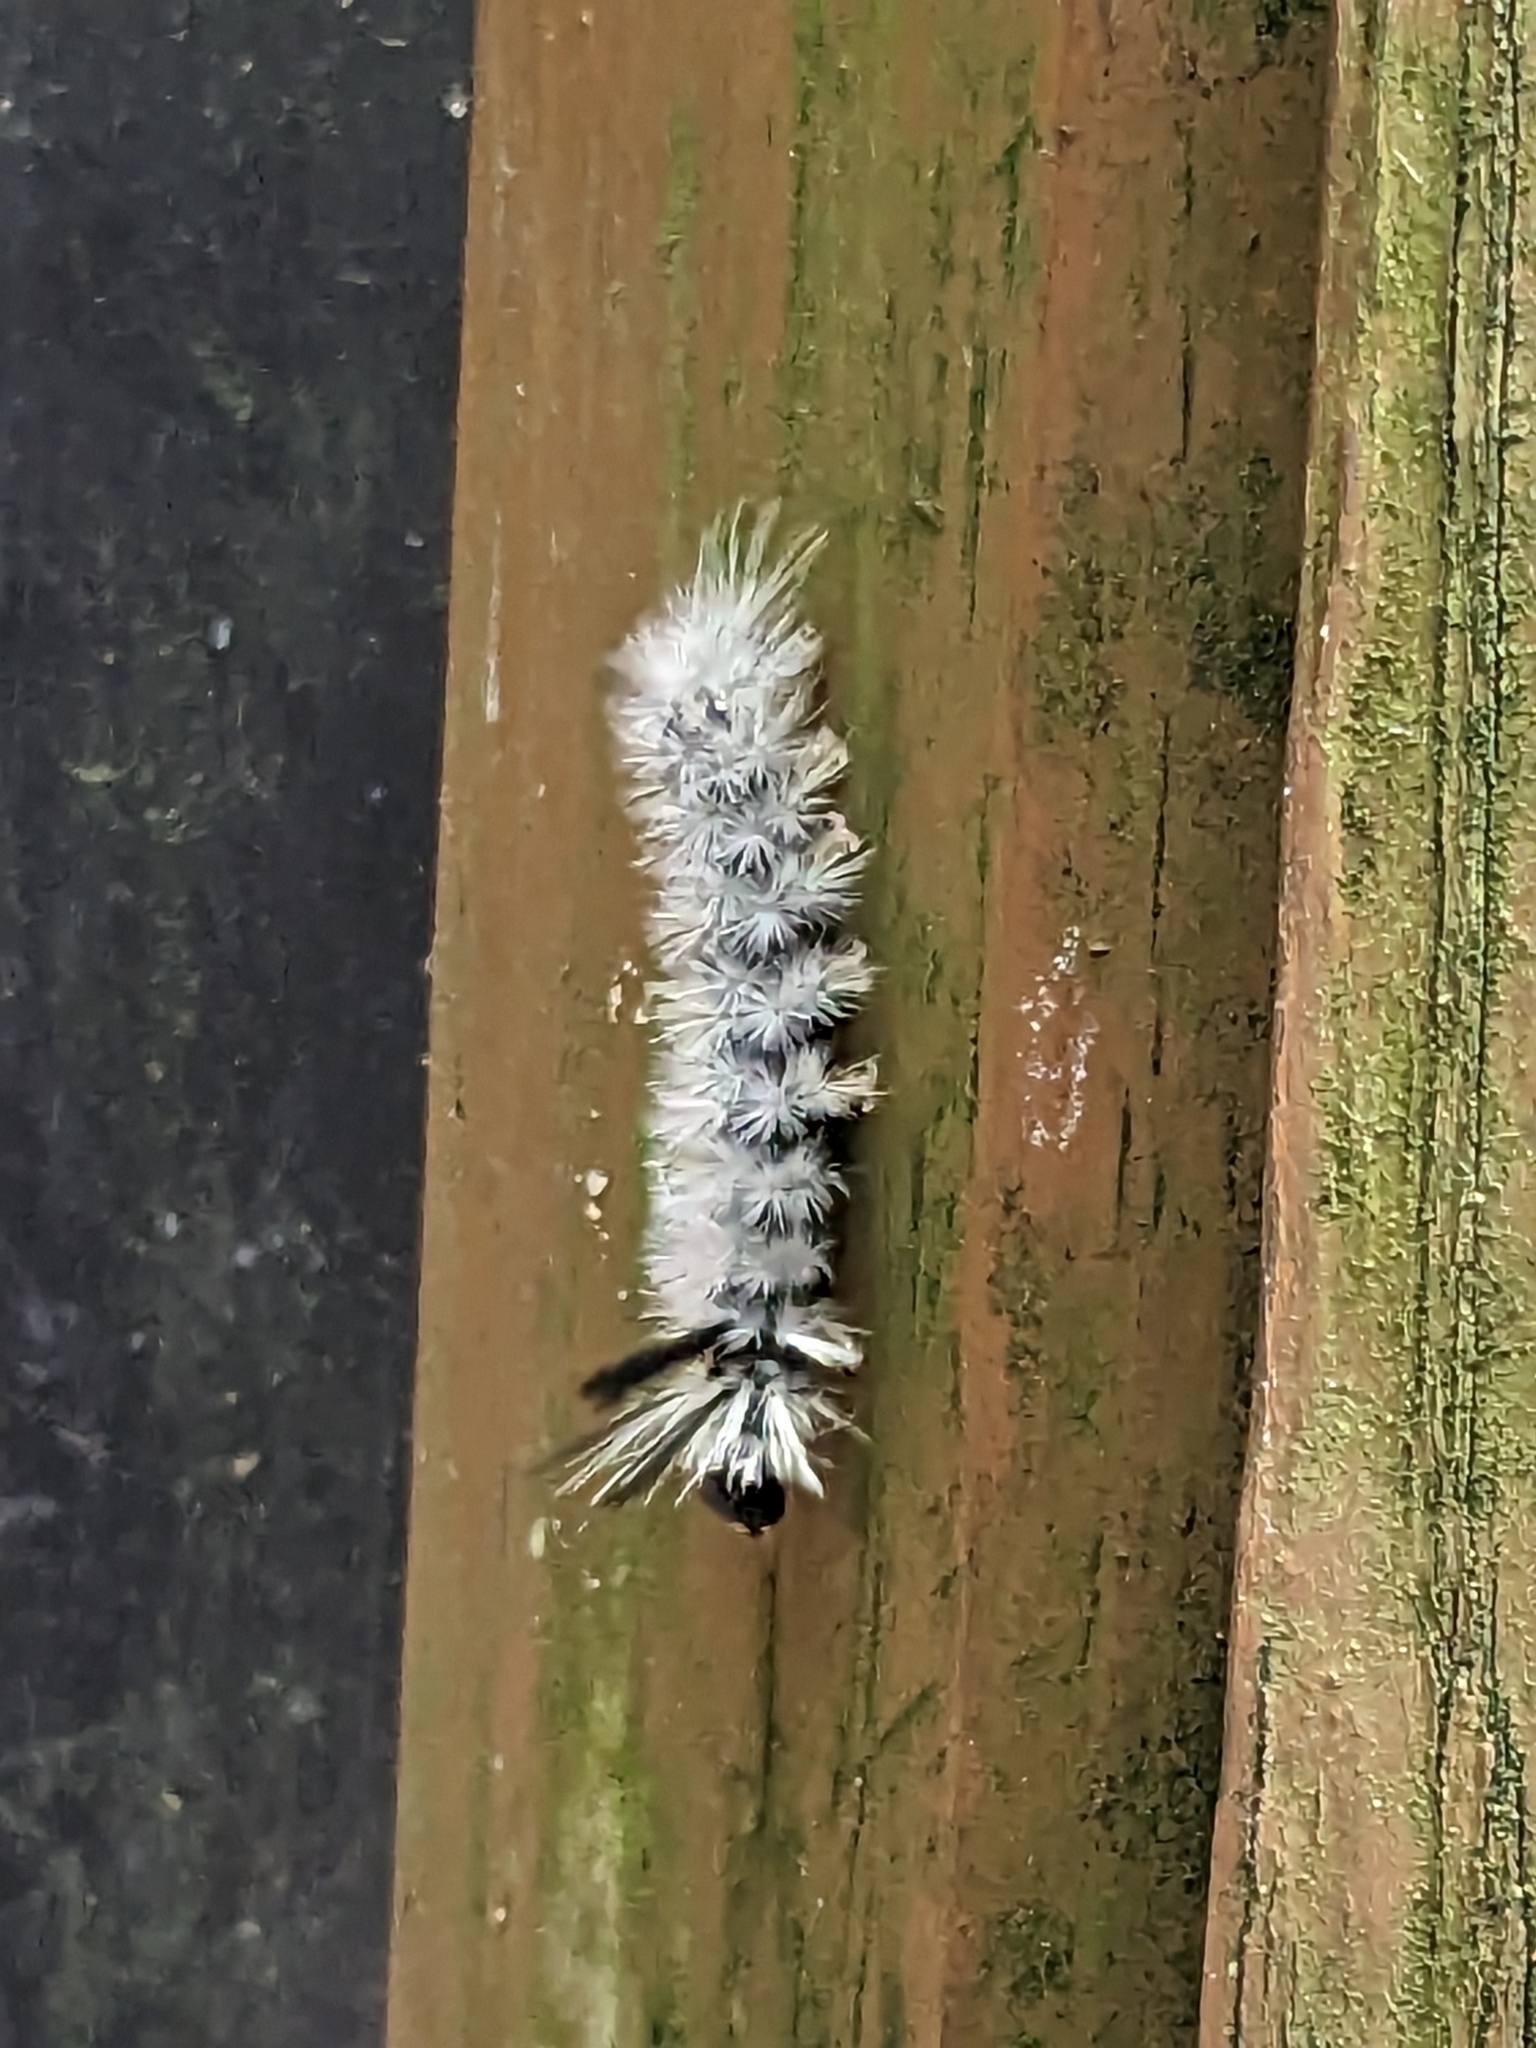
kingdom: Animalia
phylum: Arthropoda
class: Insecta
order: Lepidoptera
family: Erebidae
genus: Halysidota
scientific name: Halysidota tessellaris
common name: Banded tussock moth
